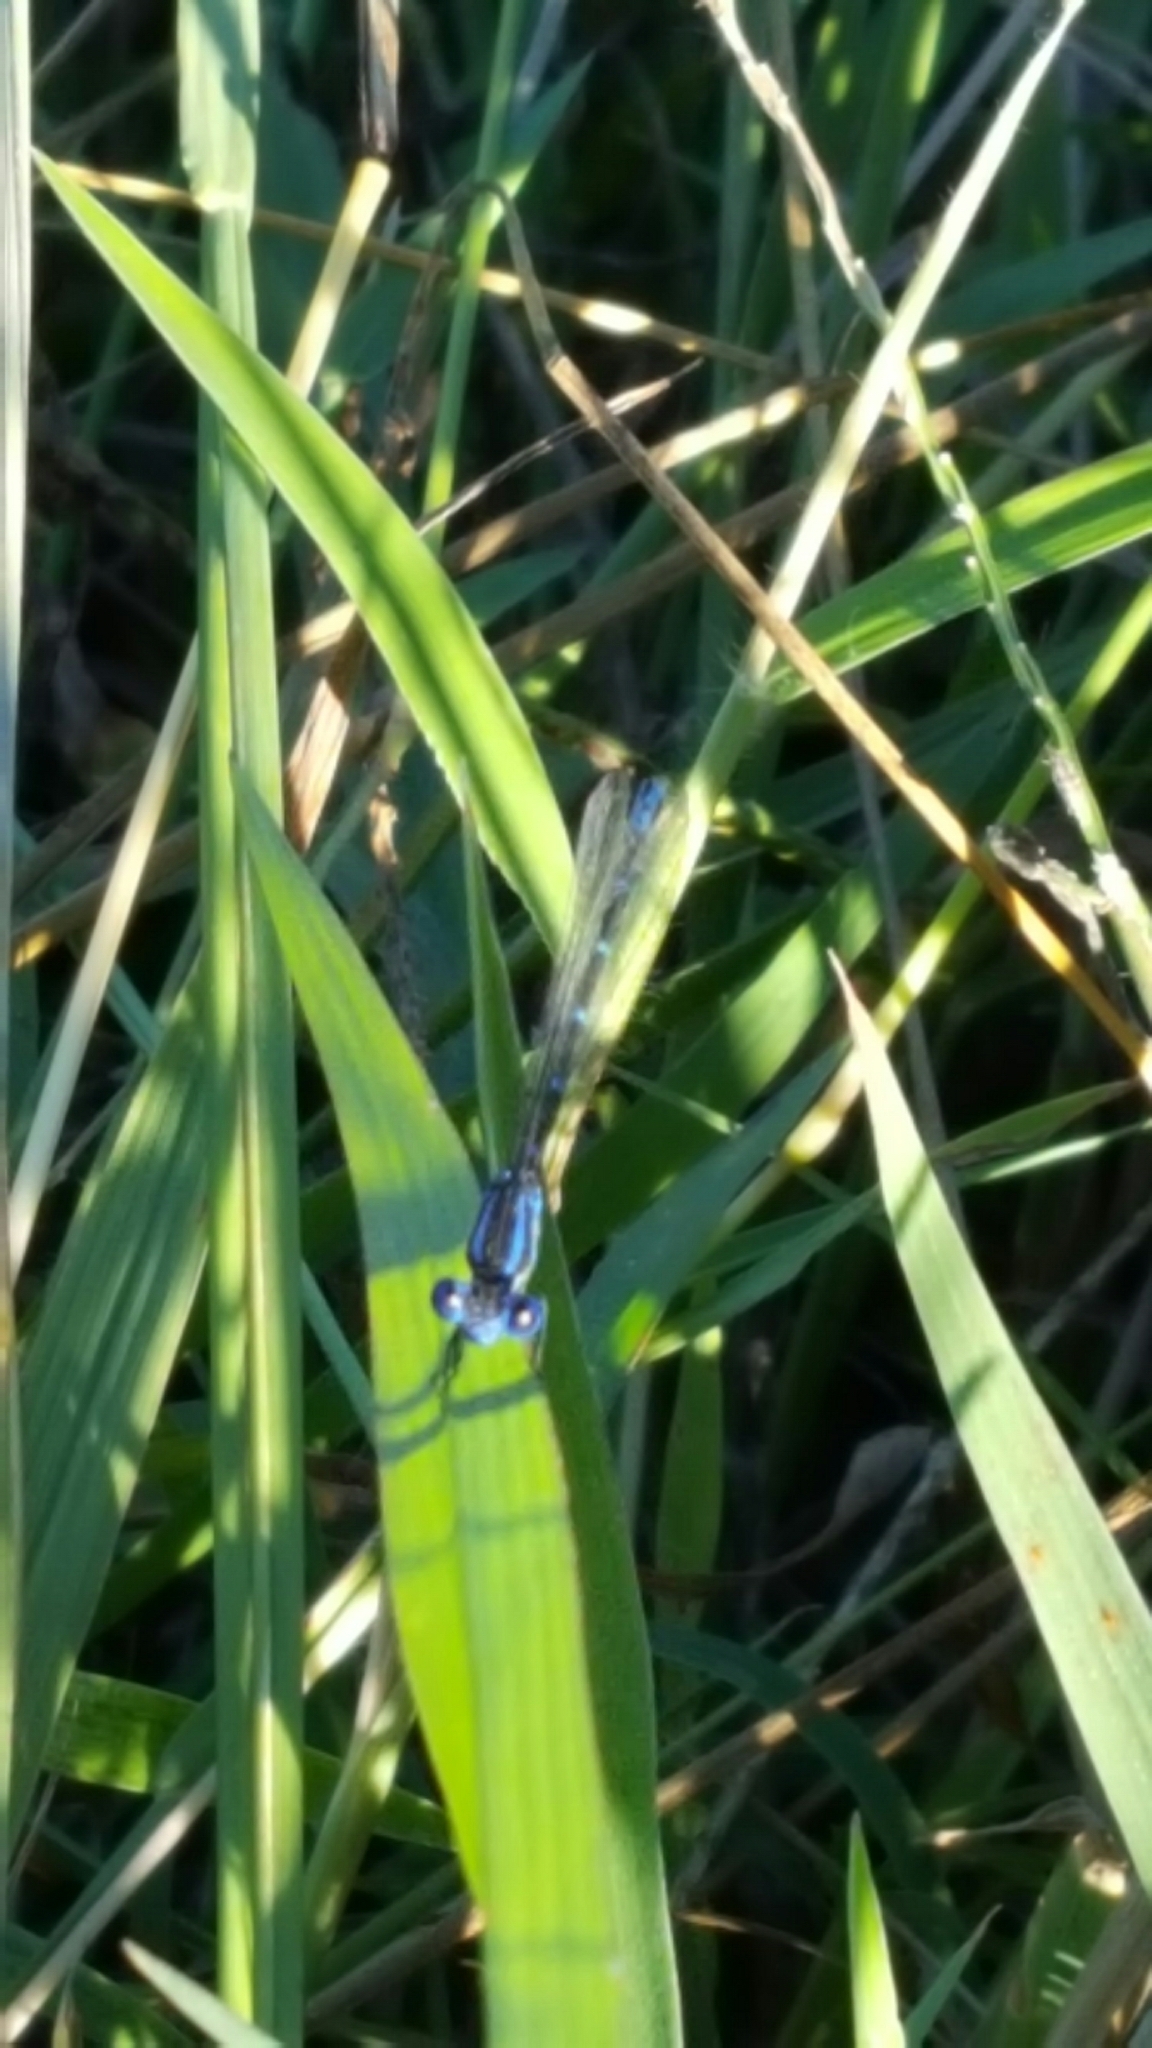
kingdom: Animalia
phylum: Arthropoda
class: Insecta
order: Odonata
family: Coenagrionidae
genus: Argia
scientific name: Argia sedula
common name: Blue-ringed dancer
